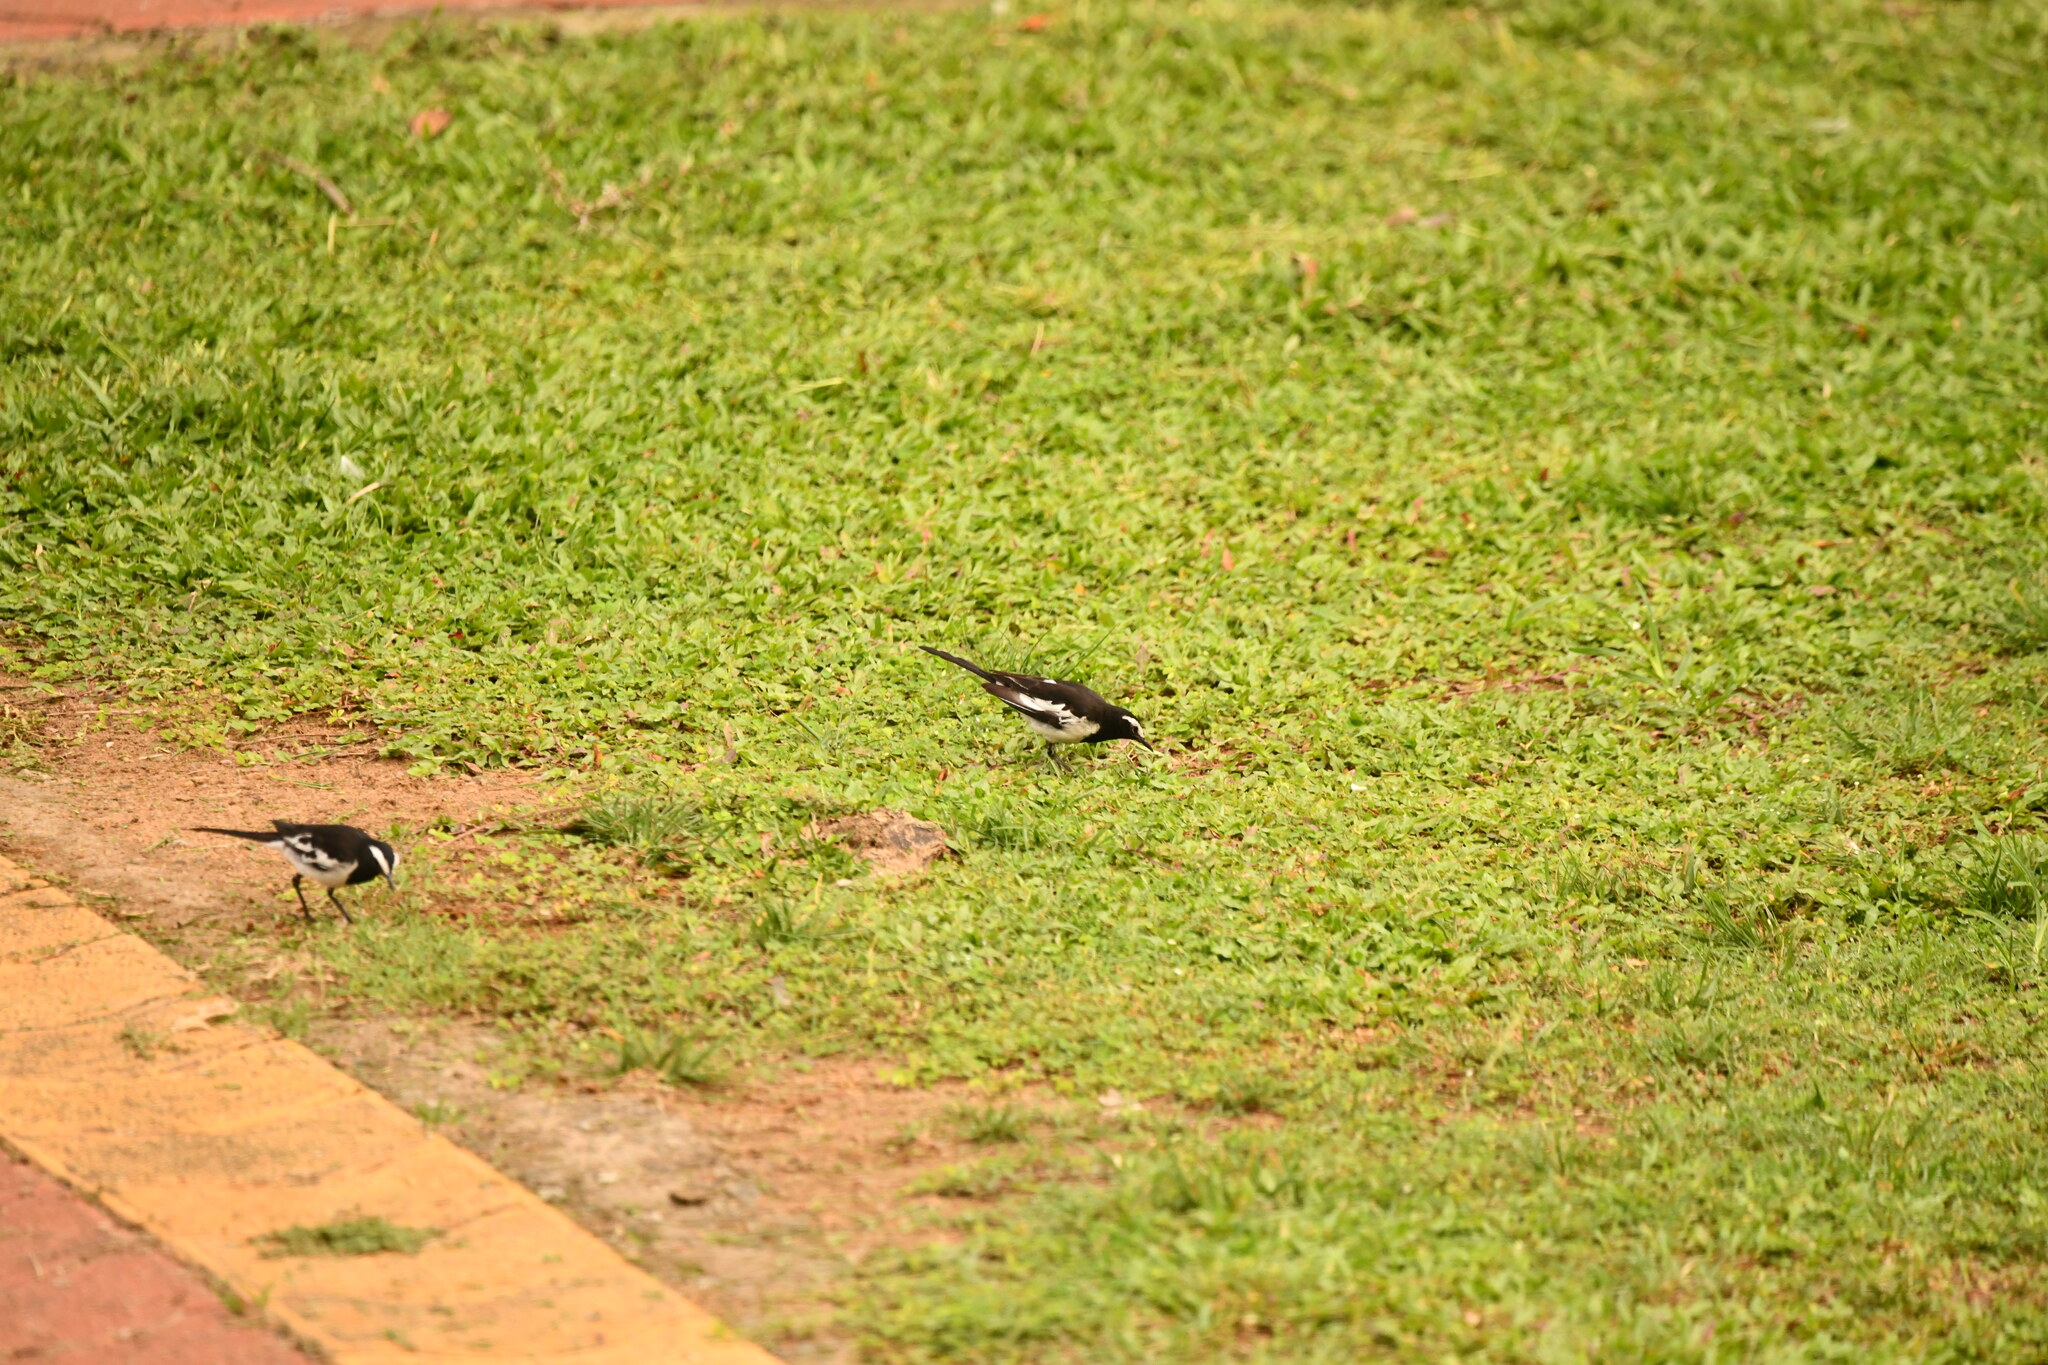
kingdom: Animalia
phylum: Chordata
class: Aves
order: Passeriformes
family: Motacillidae
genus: Motacilla
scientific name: Motacilla maderaspatensis
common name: White-browed wagtail
